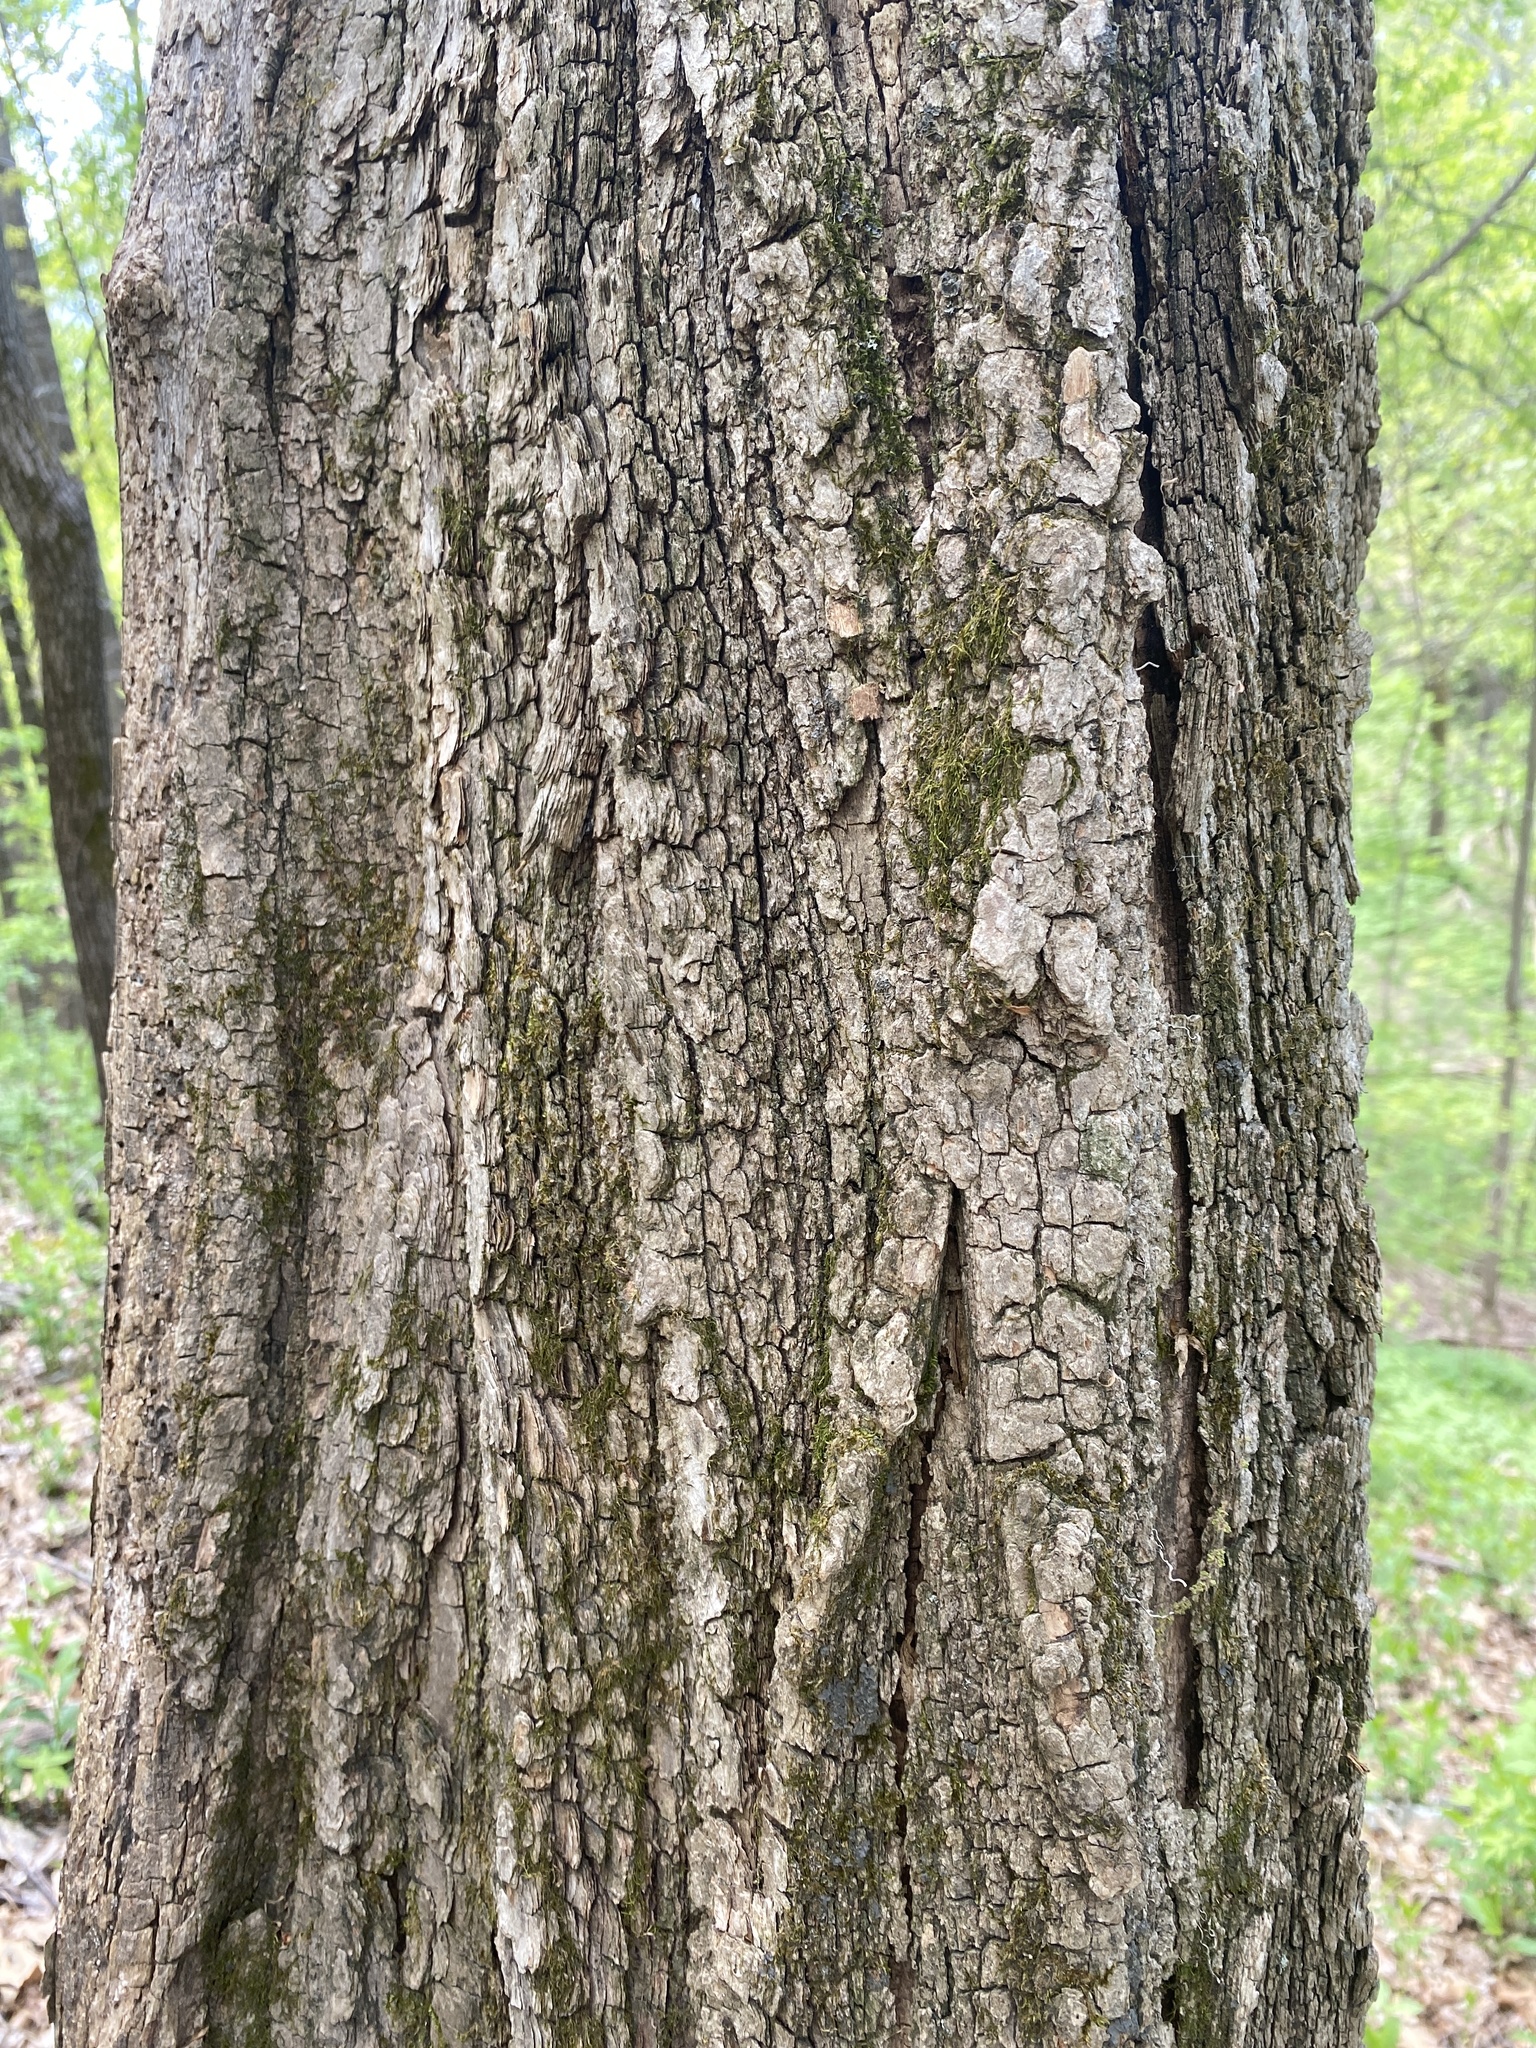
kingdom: Plantae
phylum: Tracheophyta
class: Magnoliopsida
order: Fabales
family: Fabaceae
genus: Robinia
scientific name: Robinia pseudoacacia
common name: Black locust
